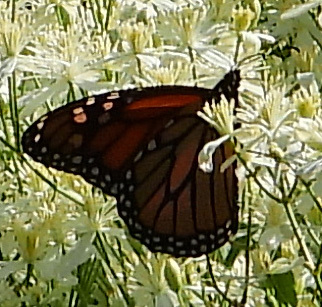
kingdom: Animalia
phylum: Arthropoda
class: Insecta
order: Lepidoptera
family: Nymphalidae
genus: Danaus
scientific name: Danaus plexippus
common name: Monarch
